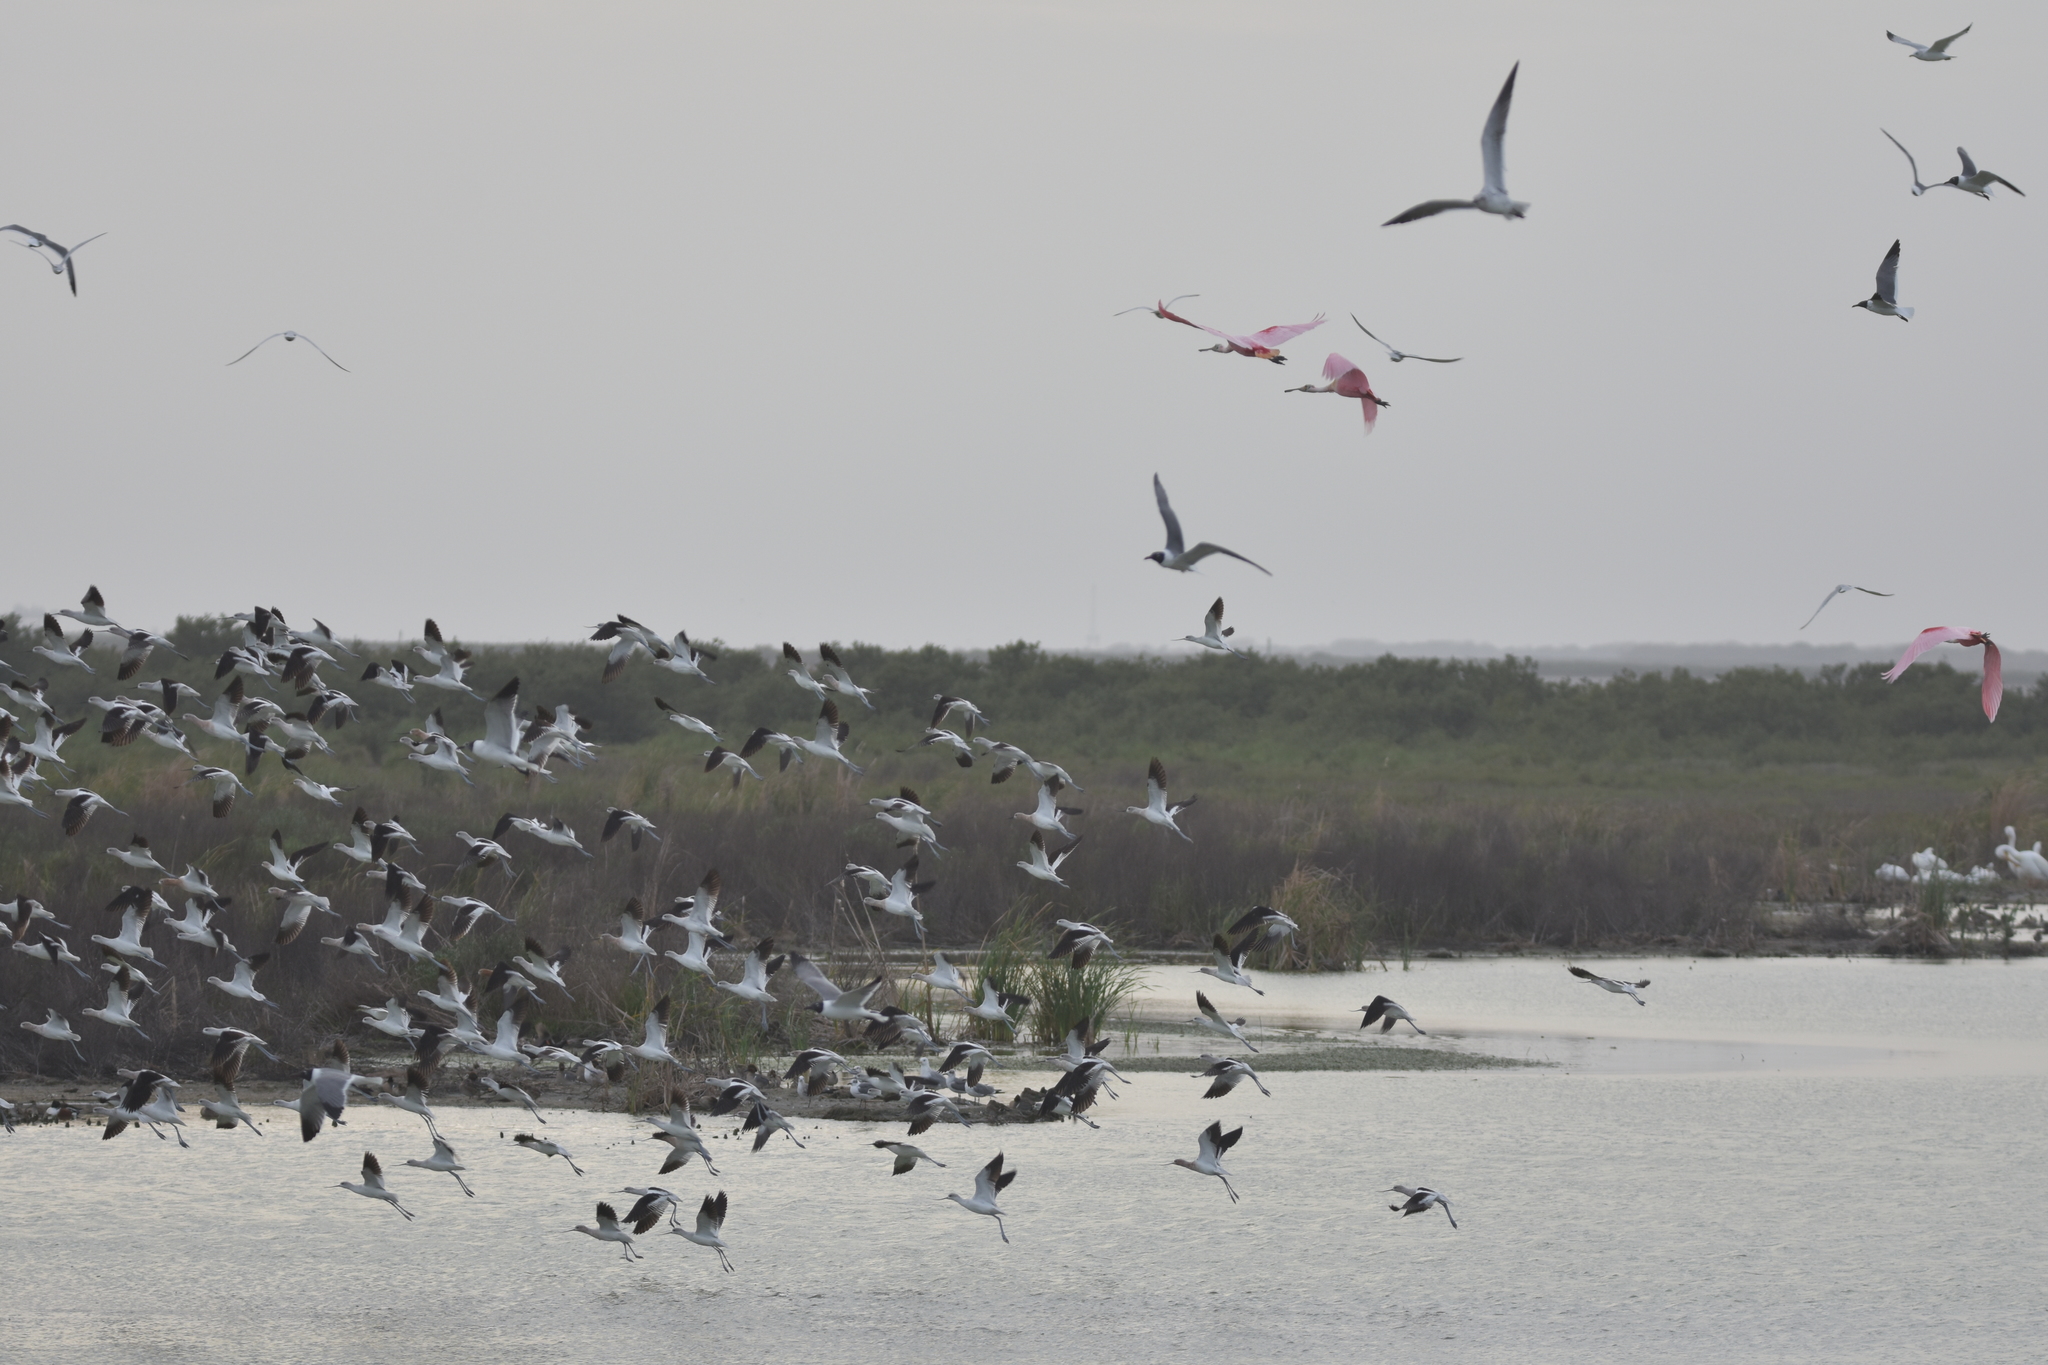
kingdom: Animalia
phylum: Chordata
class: Aves
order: Pelecaniformes
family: Threskiornithidae
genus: Platalea
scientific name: Platalea ajaja
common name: Roseate spoonbill
